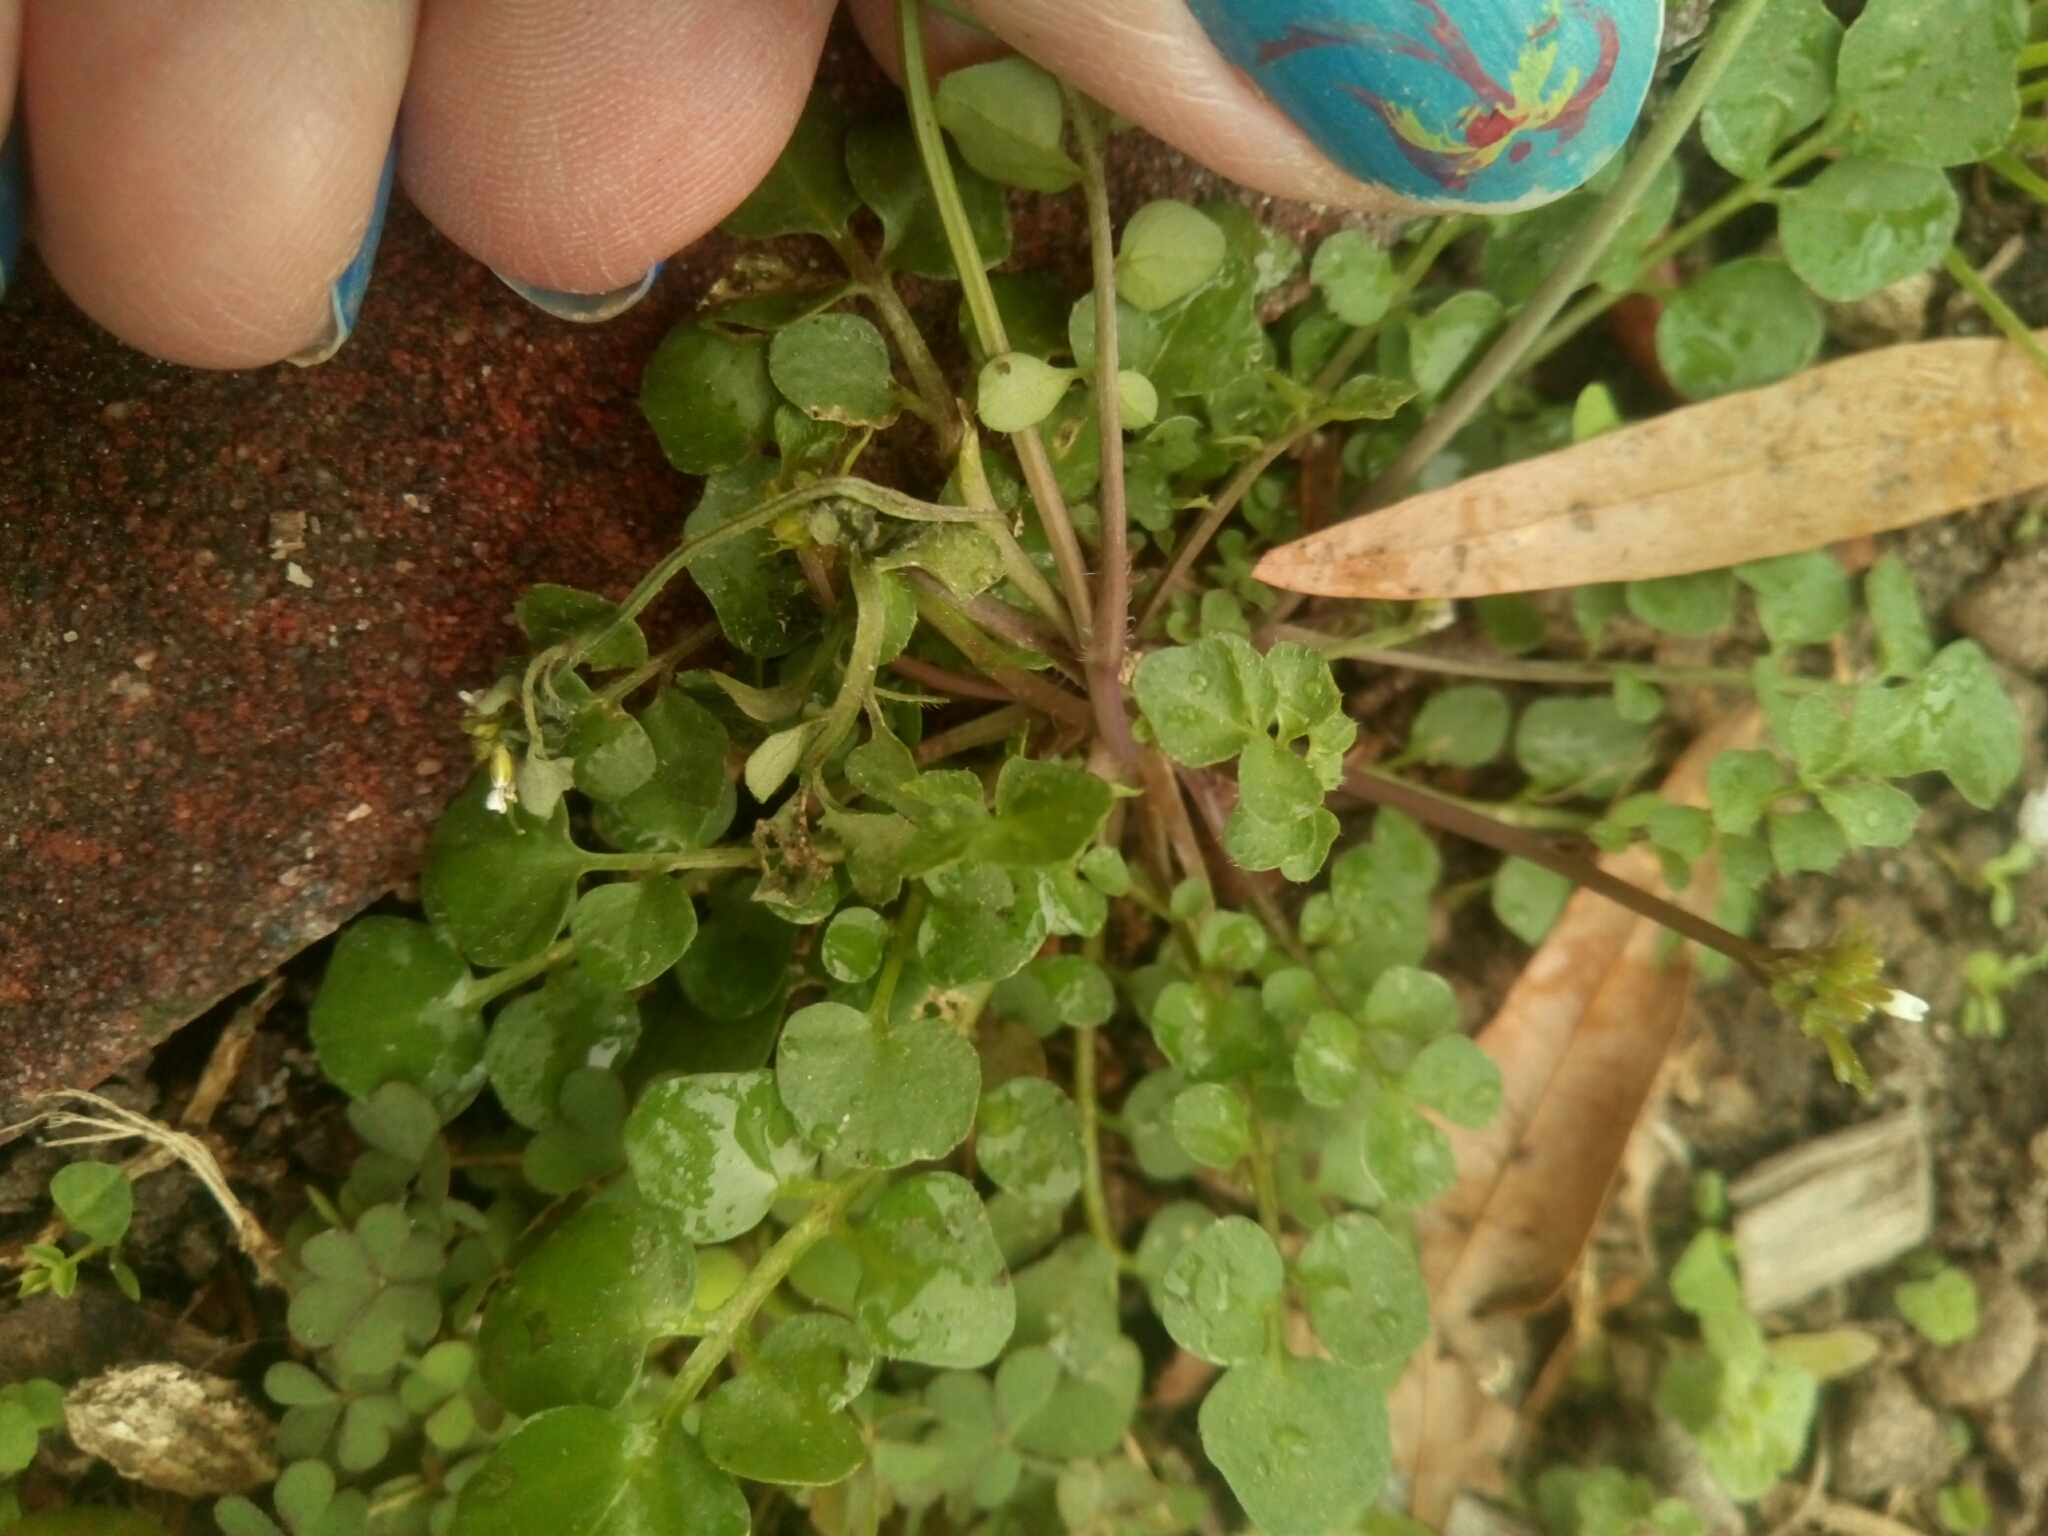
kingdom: Plantae
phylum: Tracheophyta
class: Magnoliopsida
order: Brassicales
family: Brassicaceae
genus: Cardamine
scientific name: Cardamine hirsuta
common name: Hairy bittercress
